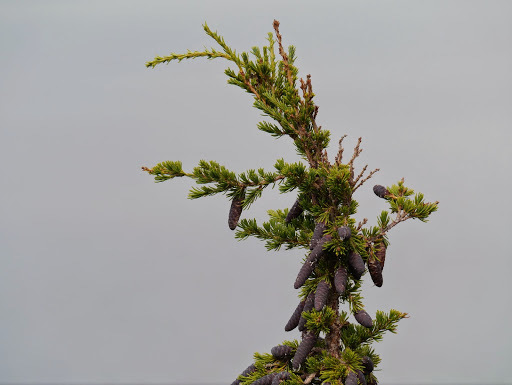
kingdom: Plantae
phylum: Tracheophyta
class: Pinopsida
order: Pinales
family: Pinaceae
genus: Tsuga
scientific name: Tsuga mertensiana
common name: Mountain hemlock
